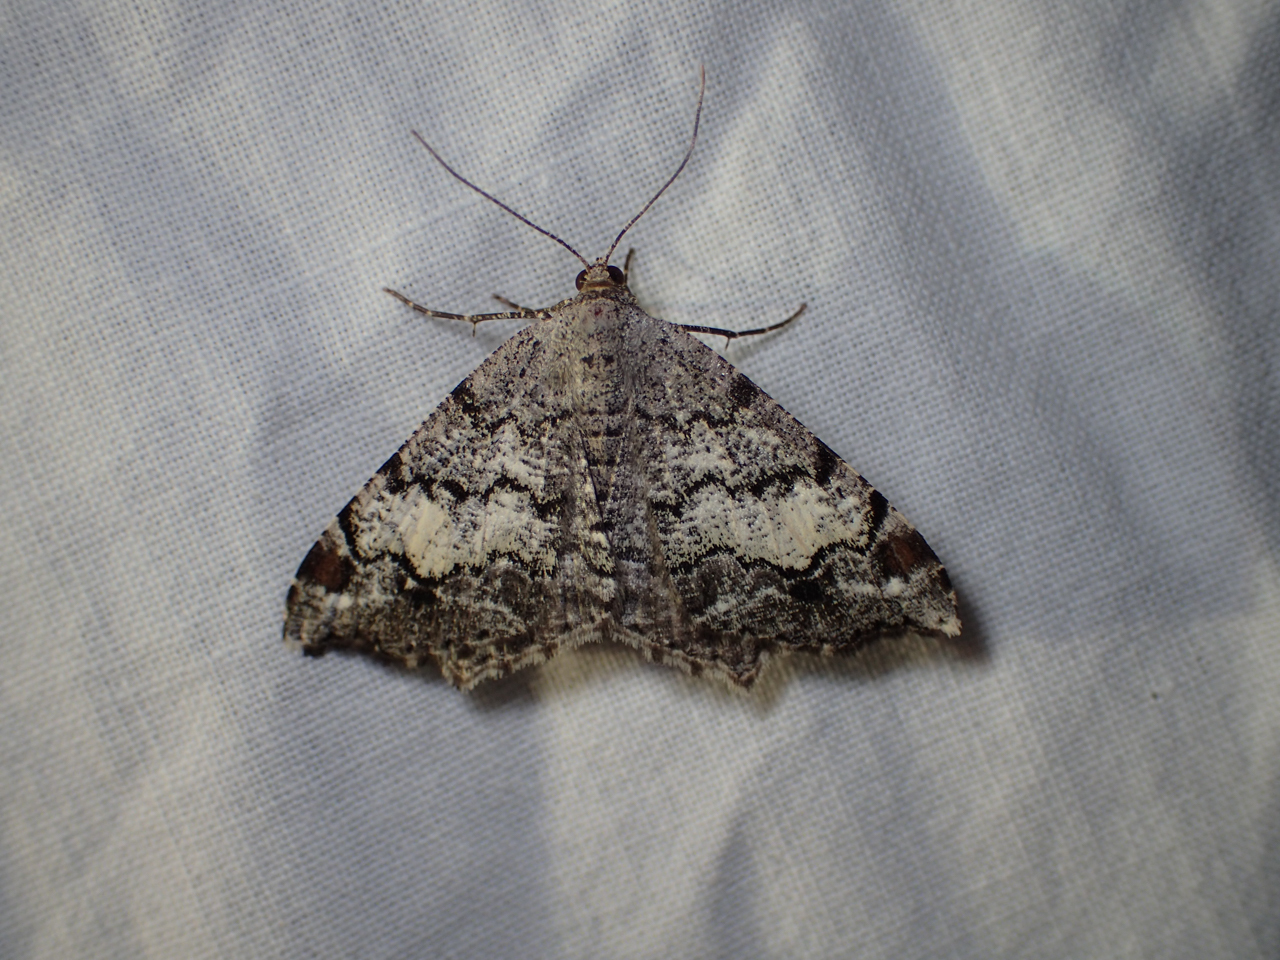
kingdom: Animalia
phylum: Arthropoda
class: Insecta
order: Lepidoptera
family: Geometridae
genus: Macaria
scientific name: Macaria granitata
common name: Granite moth
